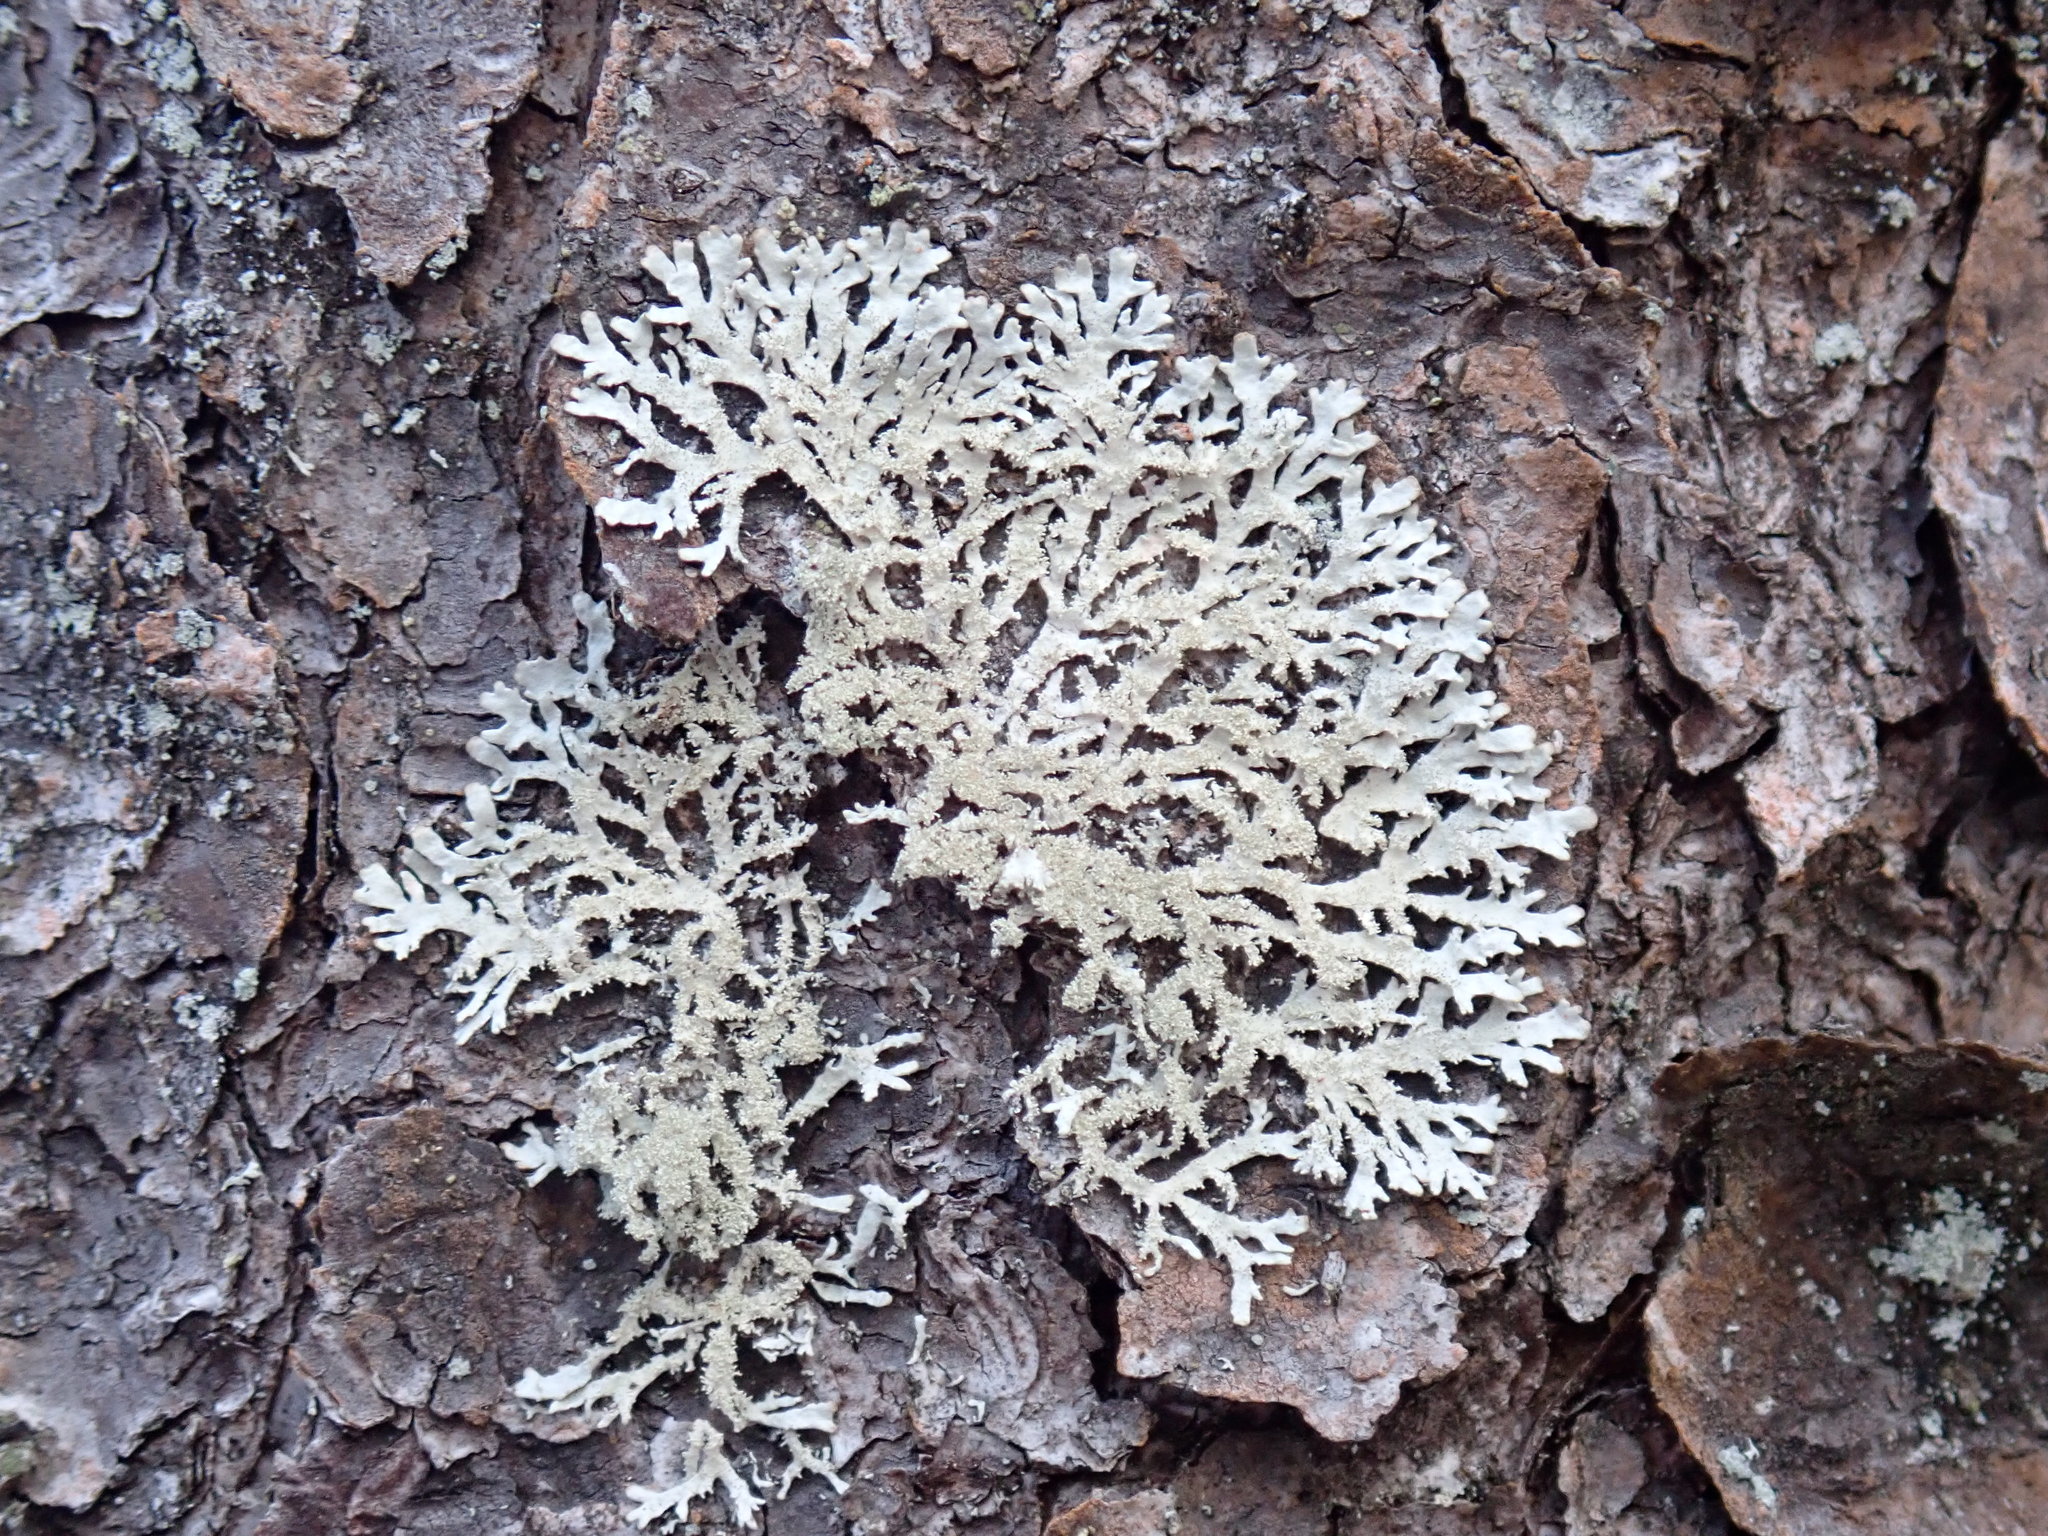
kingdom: Fungi
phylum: Ascomycota
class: Lecanoromycetes
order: Lecanorales
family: Parmeliaceae
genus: Imshaugia
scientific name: Imshaugia aleurites
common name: Salted starburst lichen
